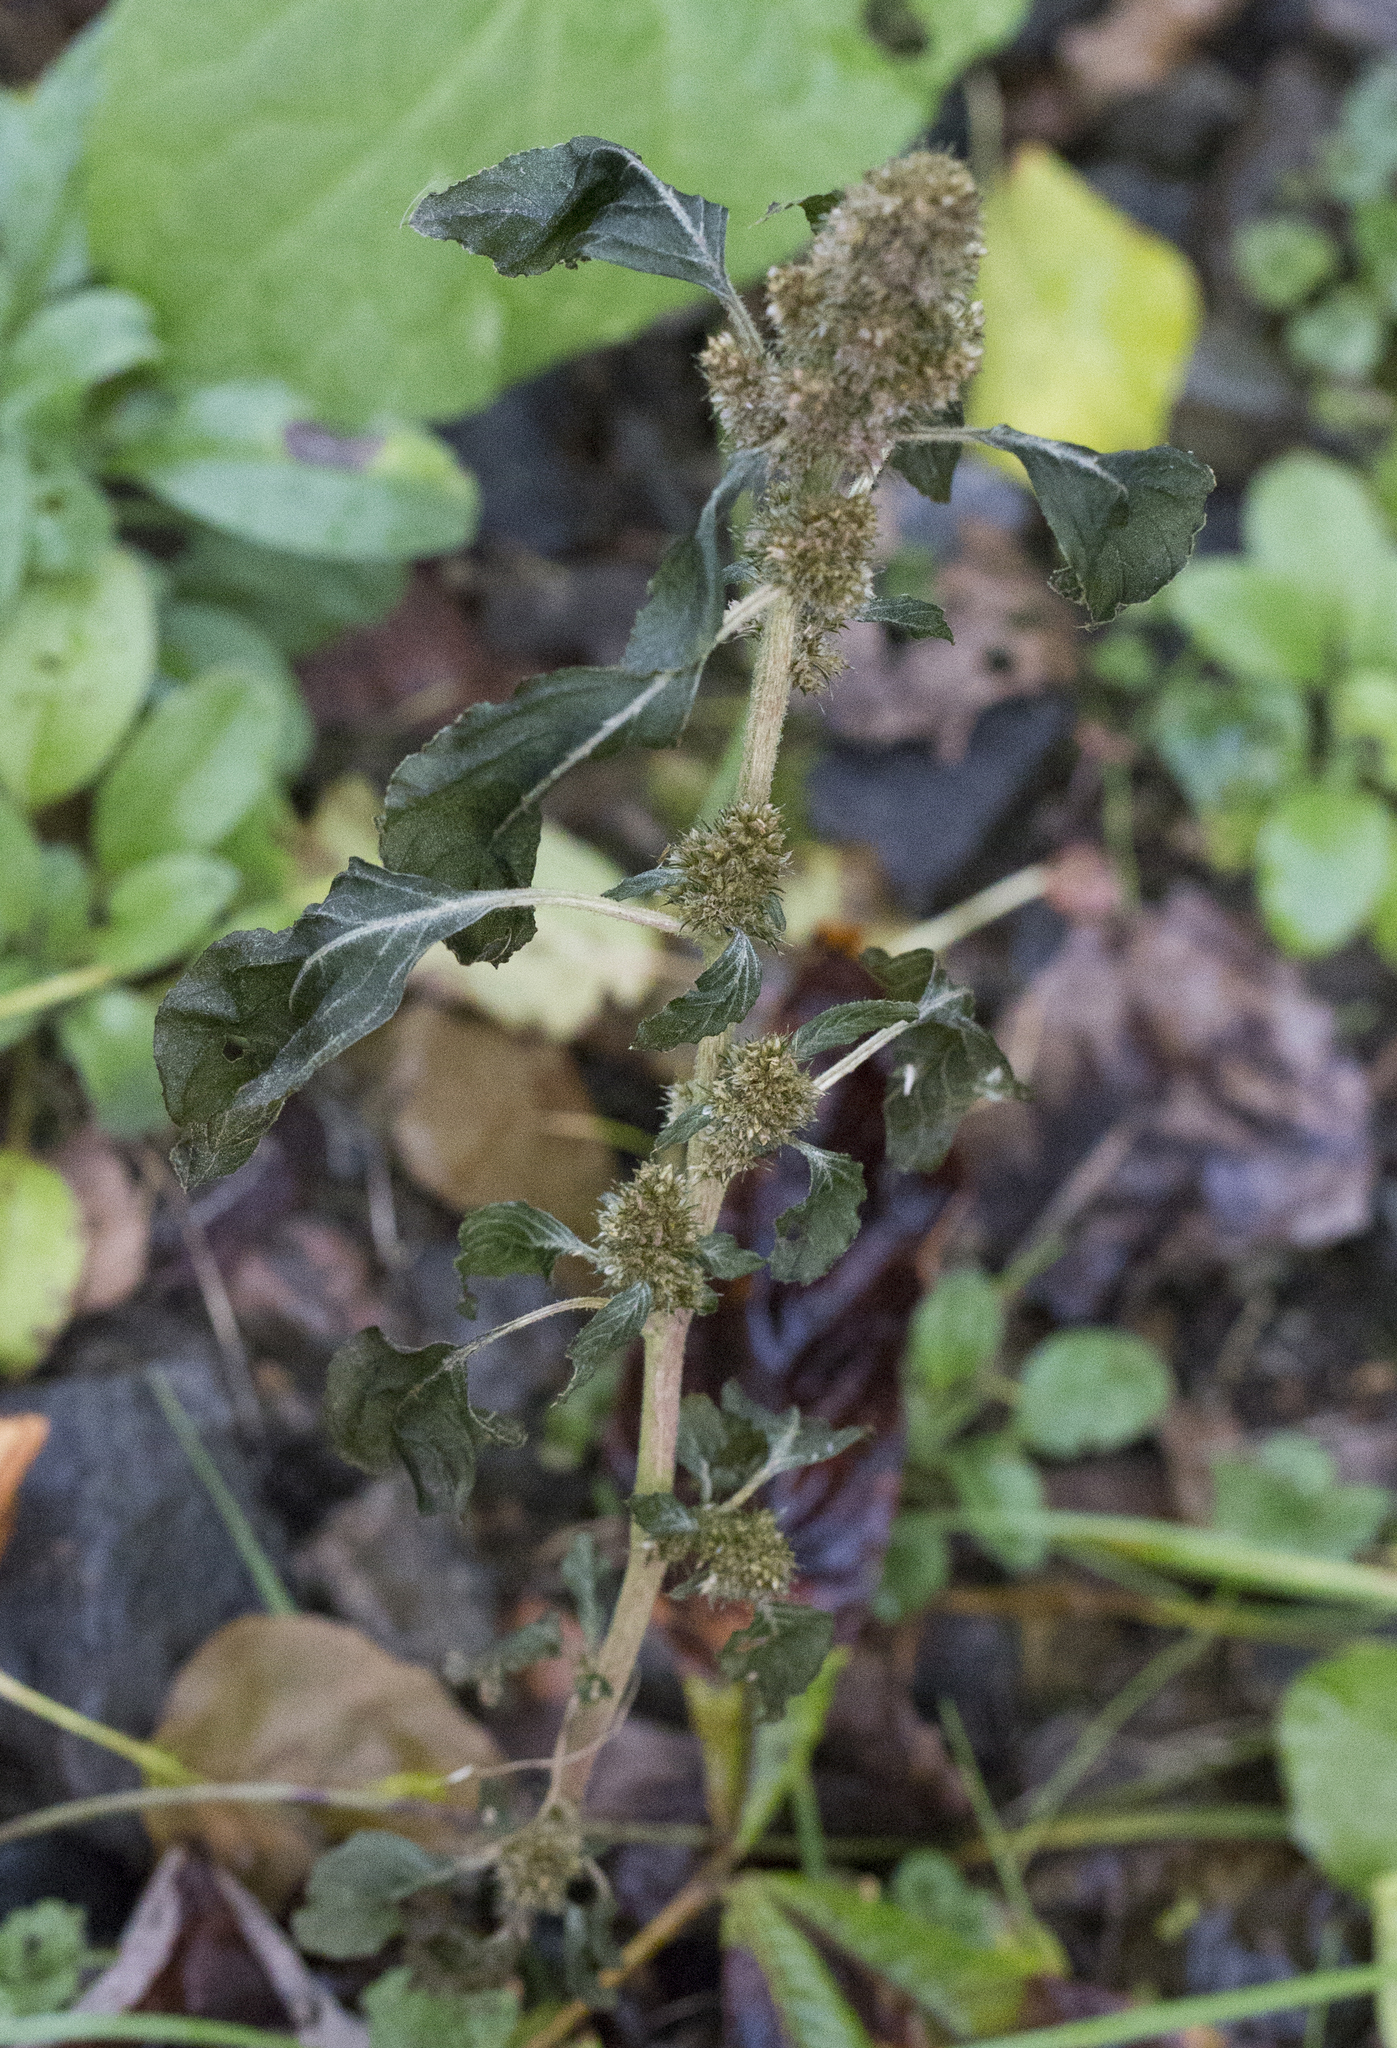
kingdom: Plantae
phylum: Tracheophyta
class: Magnoliopsida
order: Caryophyllales
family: Amaranthaceae
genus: Amaranthus
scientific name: Amaranthus retroflexus
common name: Redroot amaranth
